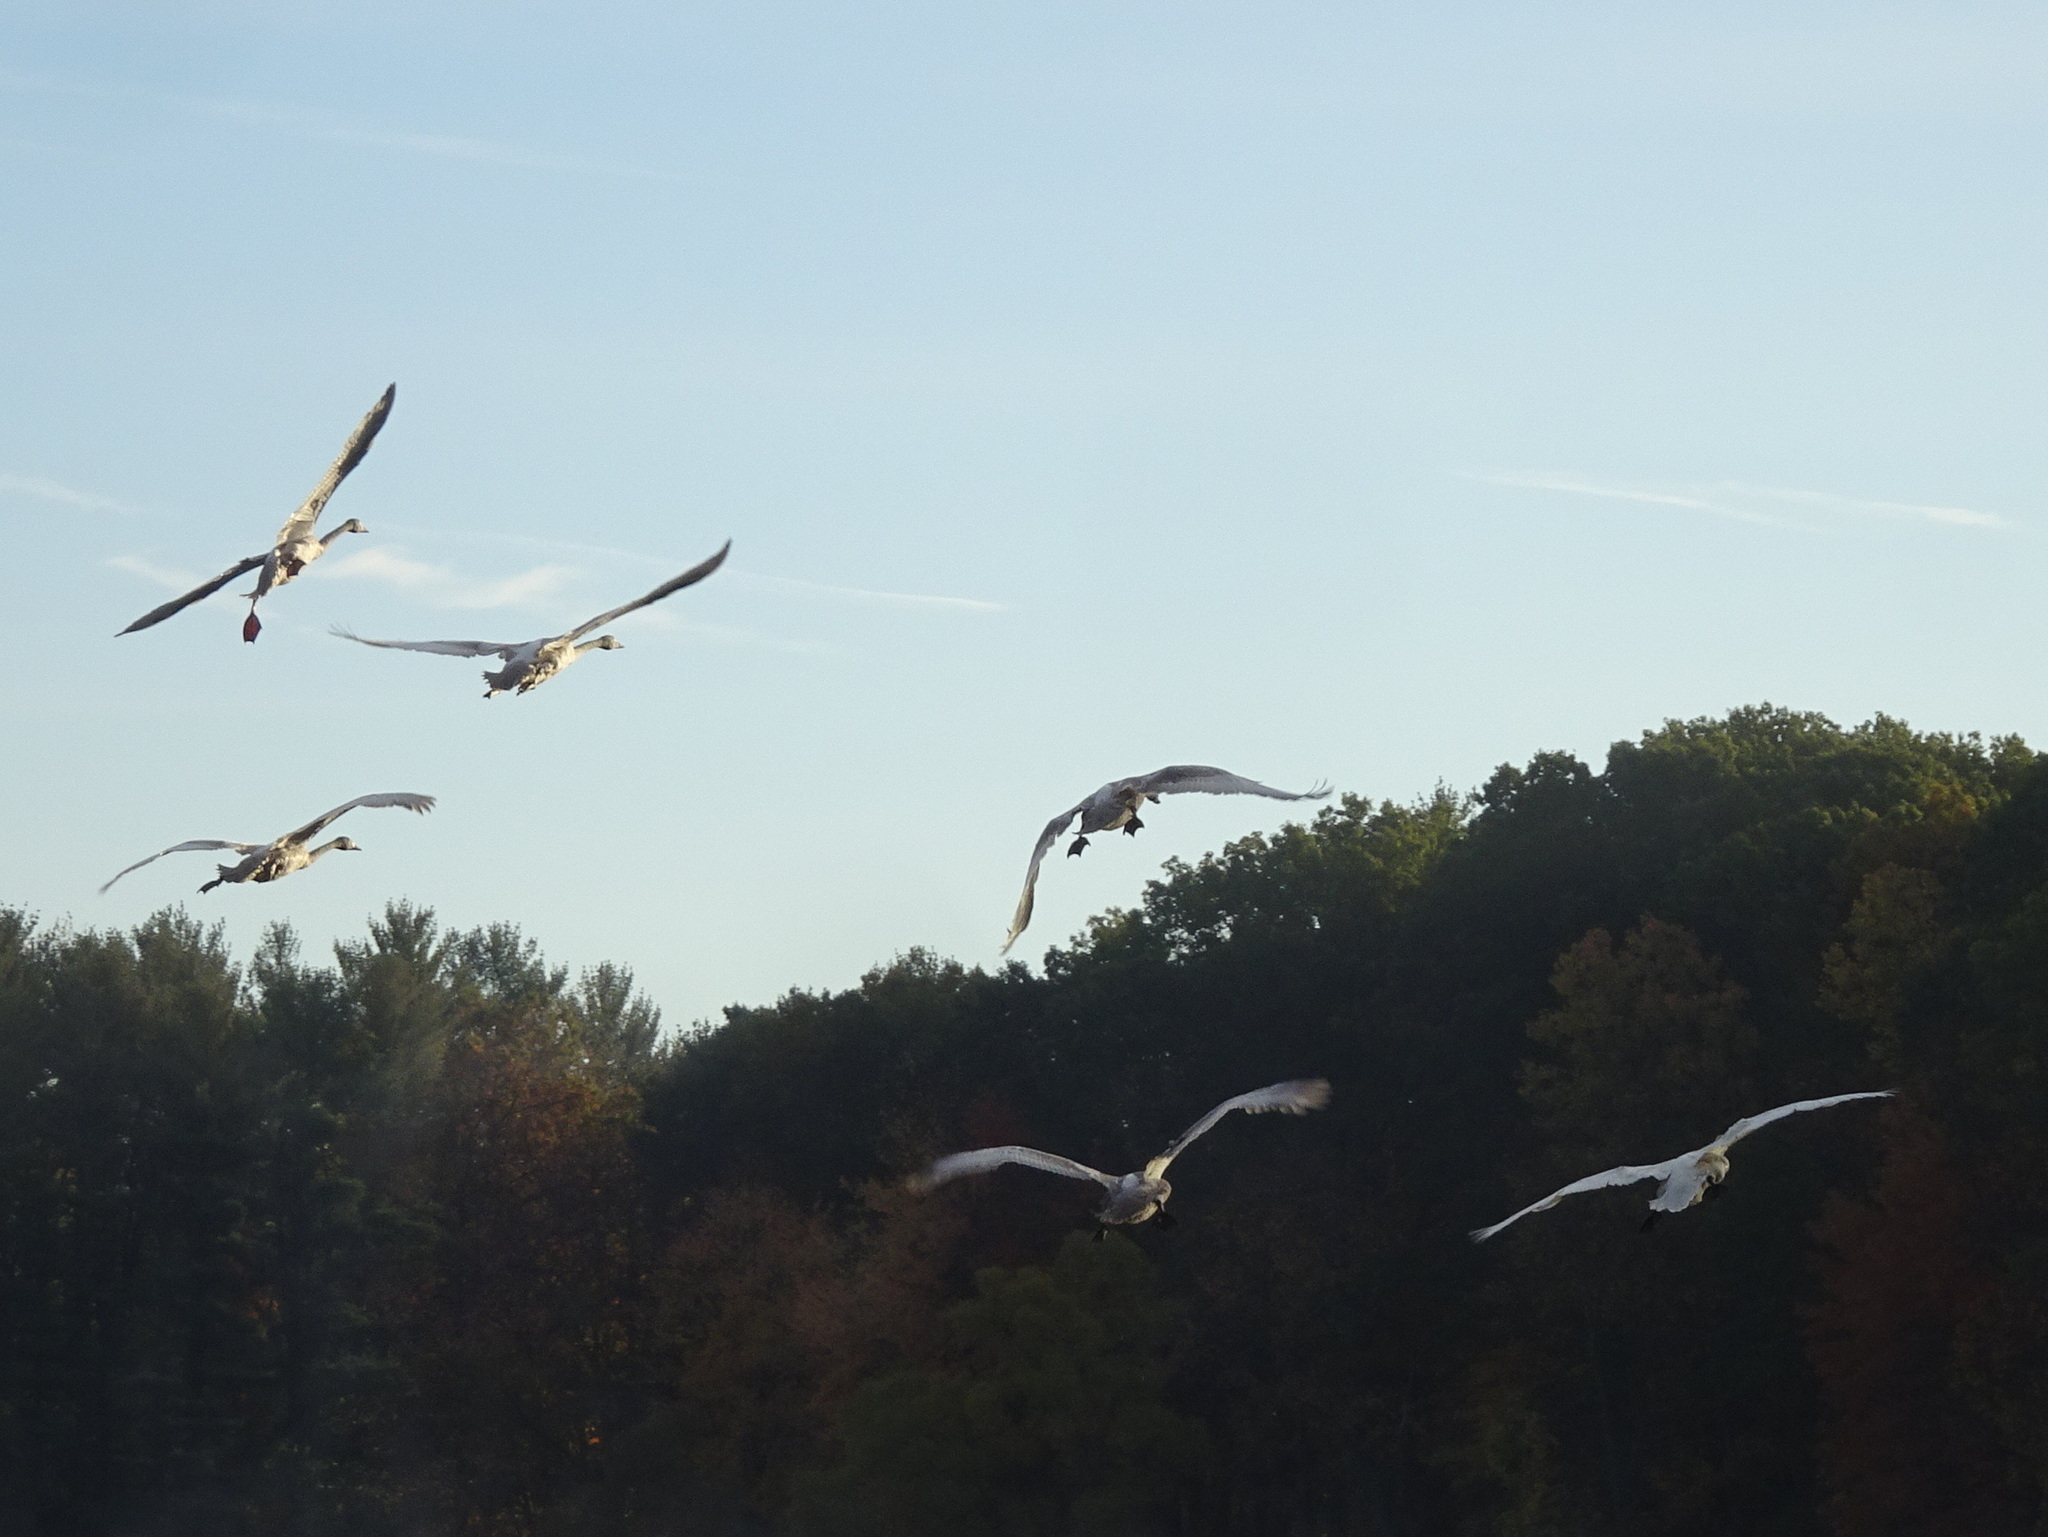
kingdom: Animalia
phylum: Chordata
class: Aves
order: Anseriformes
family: Anatidae
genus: Cygnus
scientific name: Cygnus buccinator
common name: Trumpeter swan
